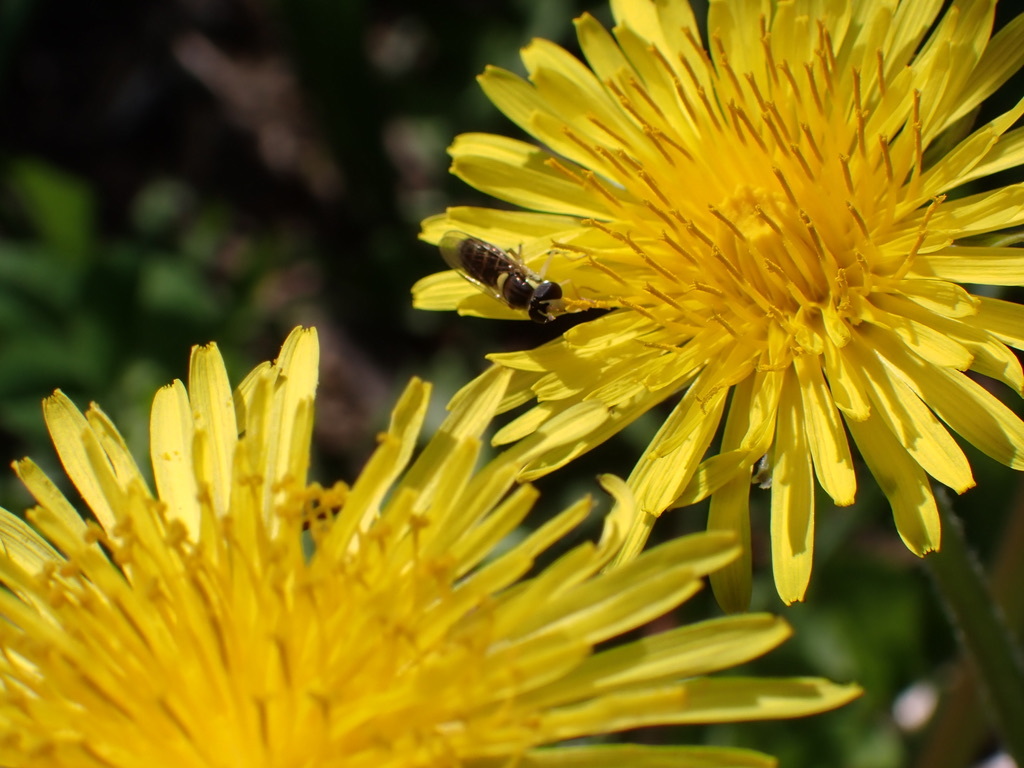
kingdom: Animalia
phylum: Arthropoda
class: Insecta
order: Diptera
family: Syrphidae
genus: Sphaerophoria
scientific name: Sphaerophoria sulphuripes
